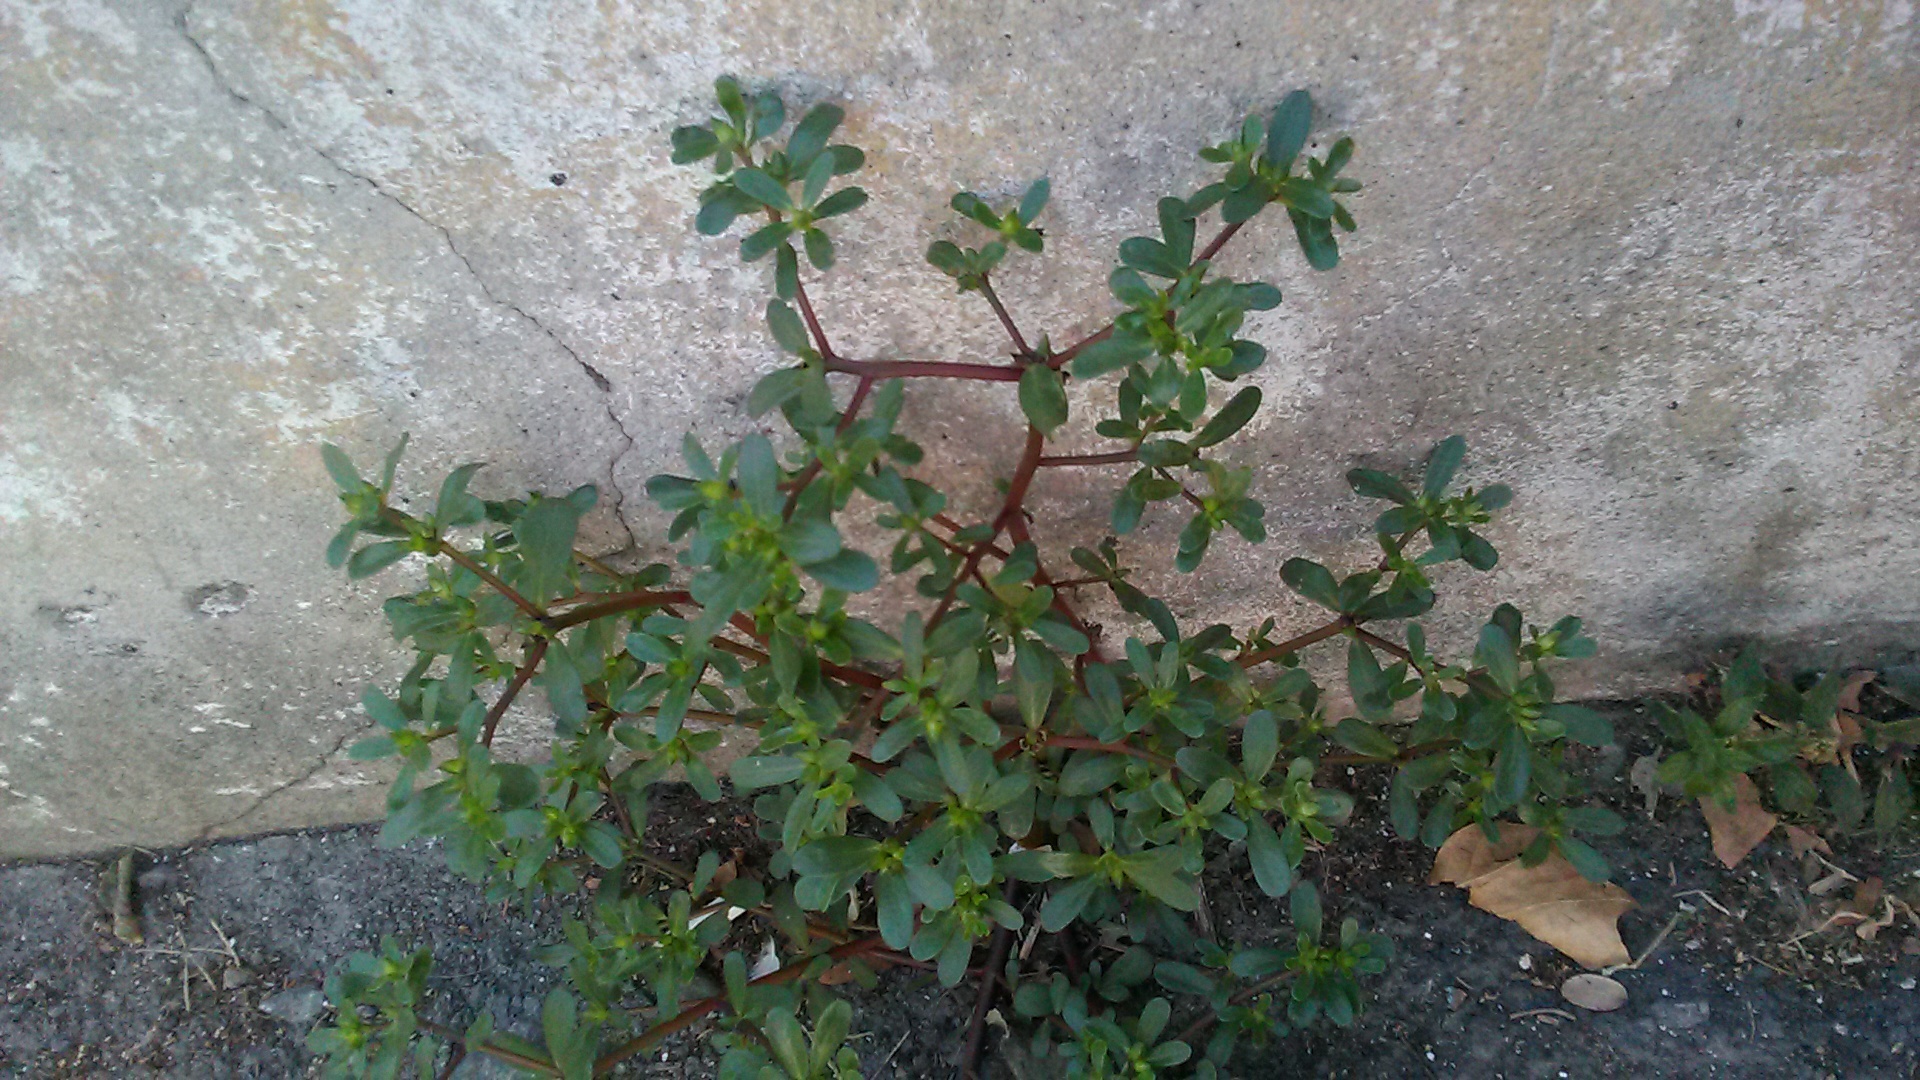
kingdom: Plantae
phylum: Tracheophyta
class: Magnoliopsida
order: Caryophyllales
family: Portulacaceae
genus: Portulaca
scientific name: Portulaca oleracea
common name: Common purslane
